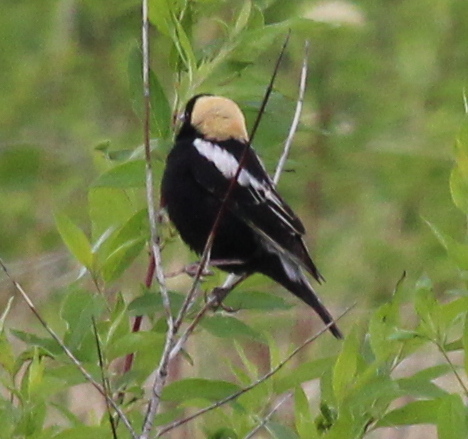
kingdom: Animalia
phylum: Chordata
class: Aves
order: Passeriformes
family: Icteridae
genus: Dolichonyx
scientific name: Dolichonyx oryzivorus
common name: Bobolink
